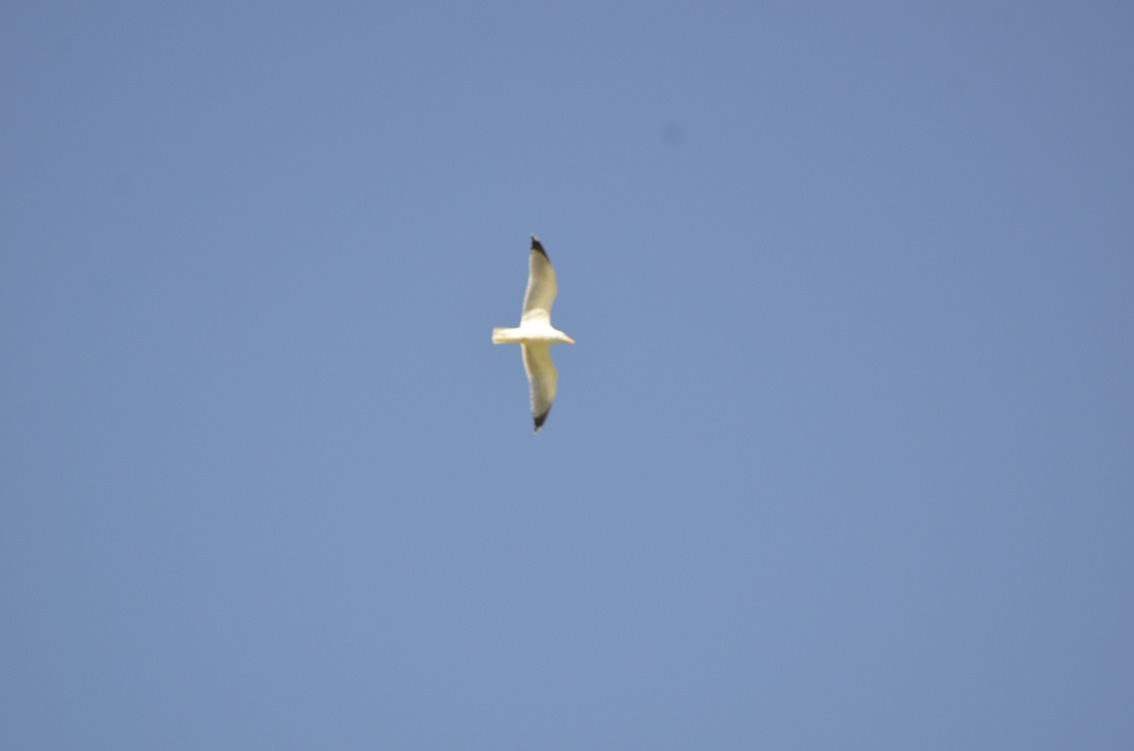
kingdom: Animalia
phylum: Chordata
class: Aves
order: Charadriiformes
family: Laridae
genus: Larus
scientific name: Larus michahellis
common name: Yellow-legged gull
